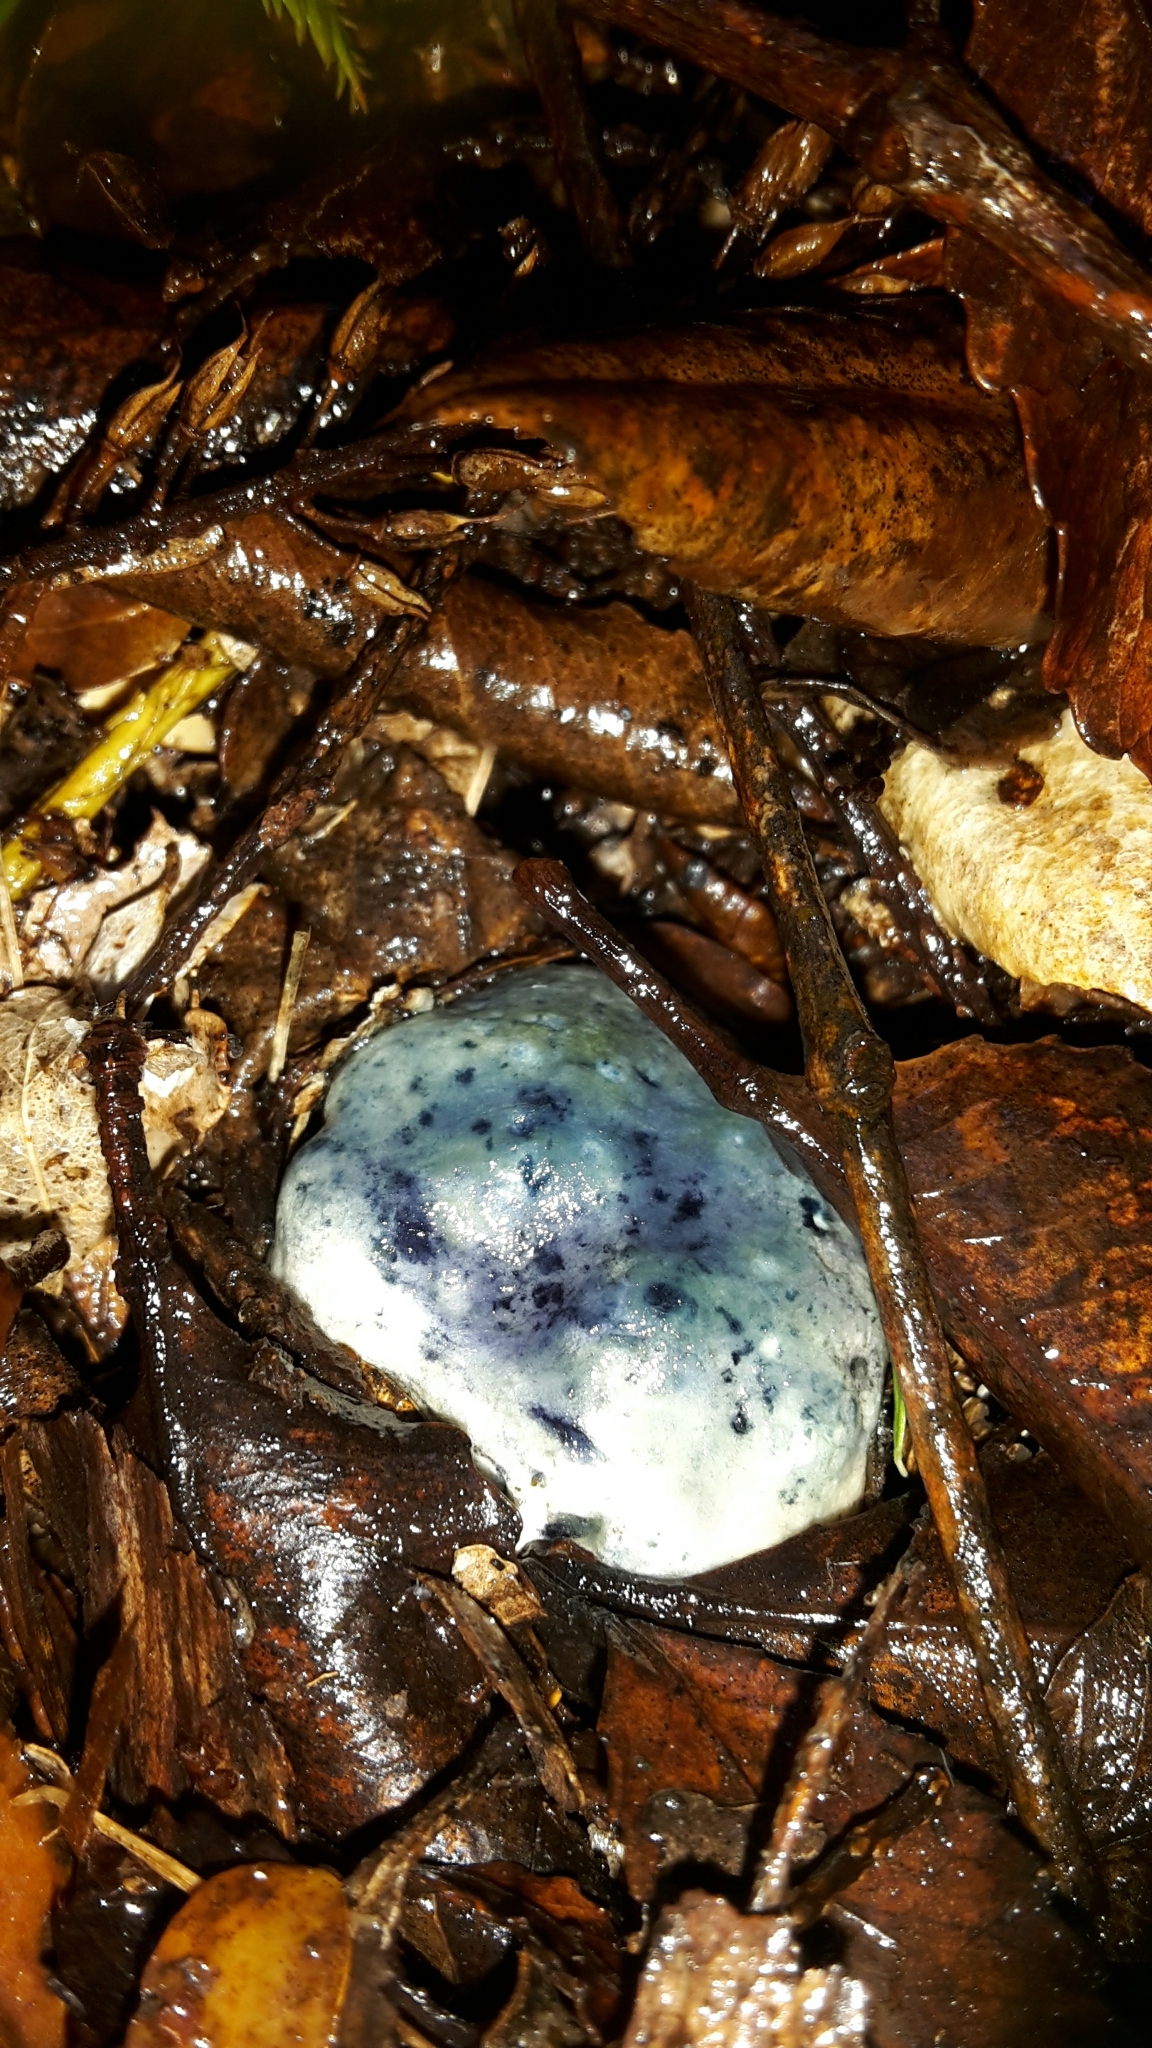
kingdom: Fungi
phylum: Basidiomycota
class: Agaricomycetes
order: Boletales
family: Boletaceae
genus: Leccinum
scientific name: Leccinum pachyderme
